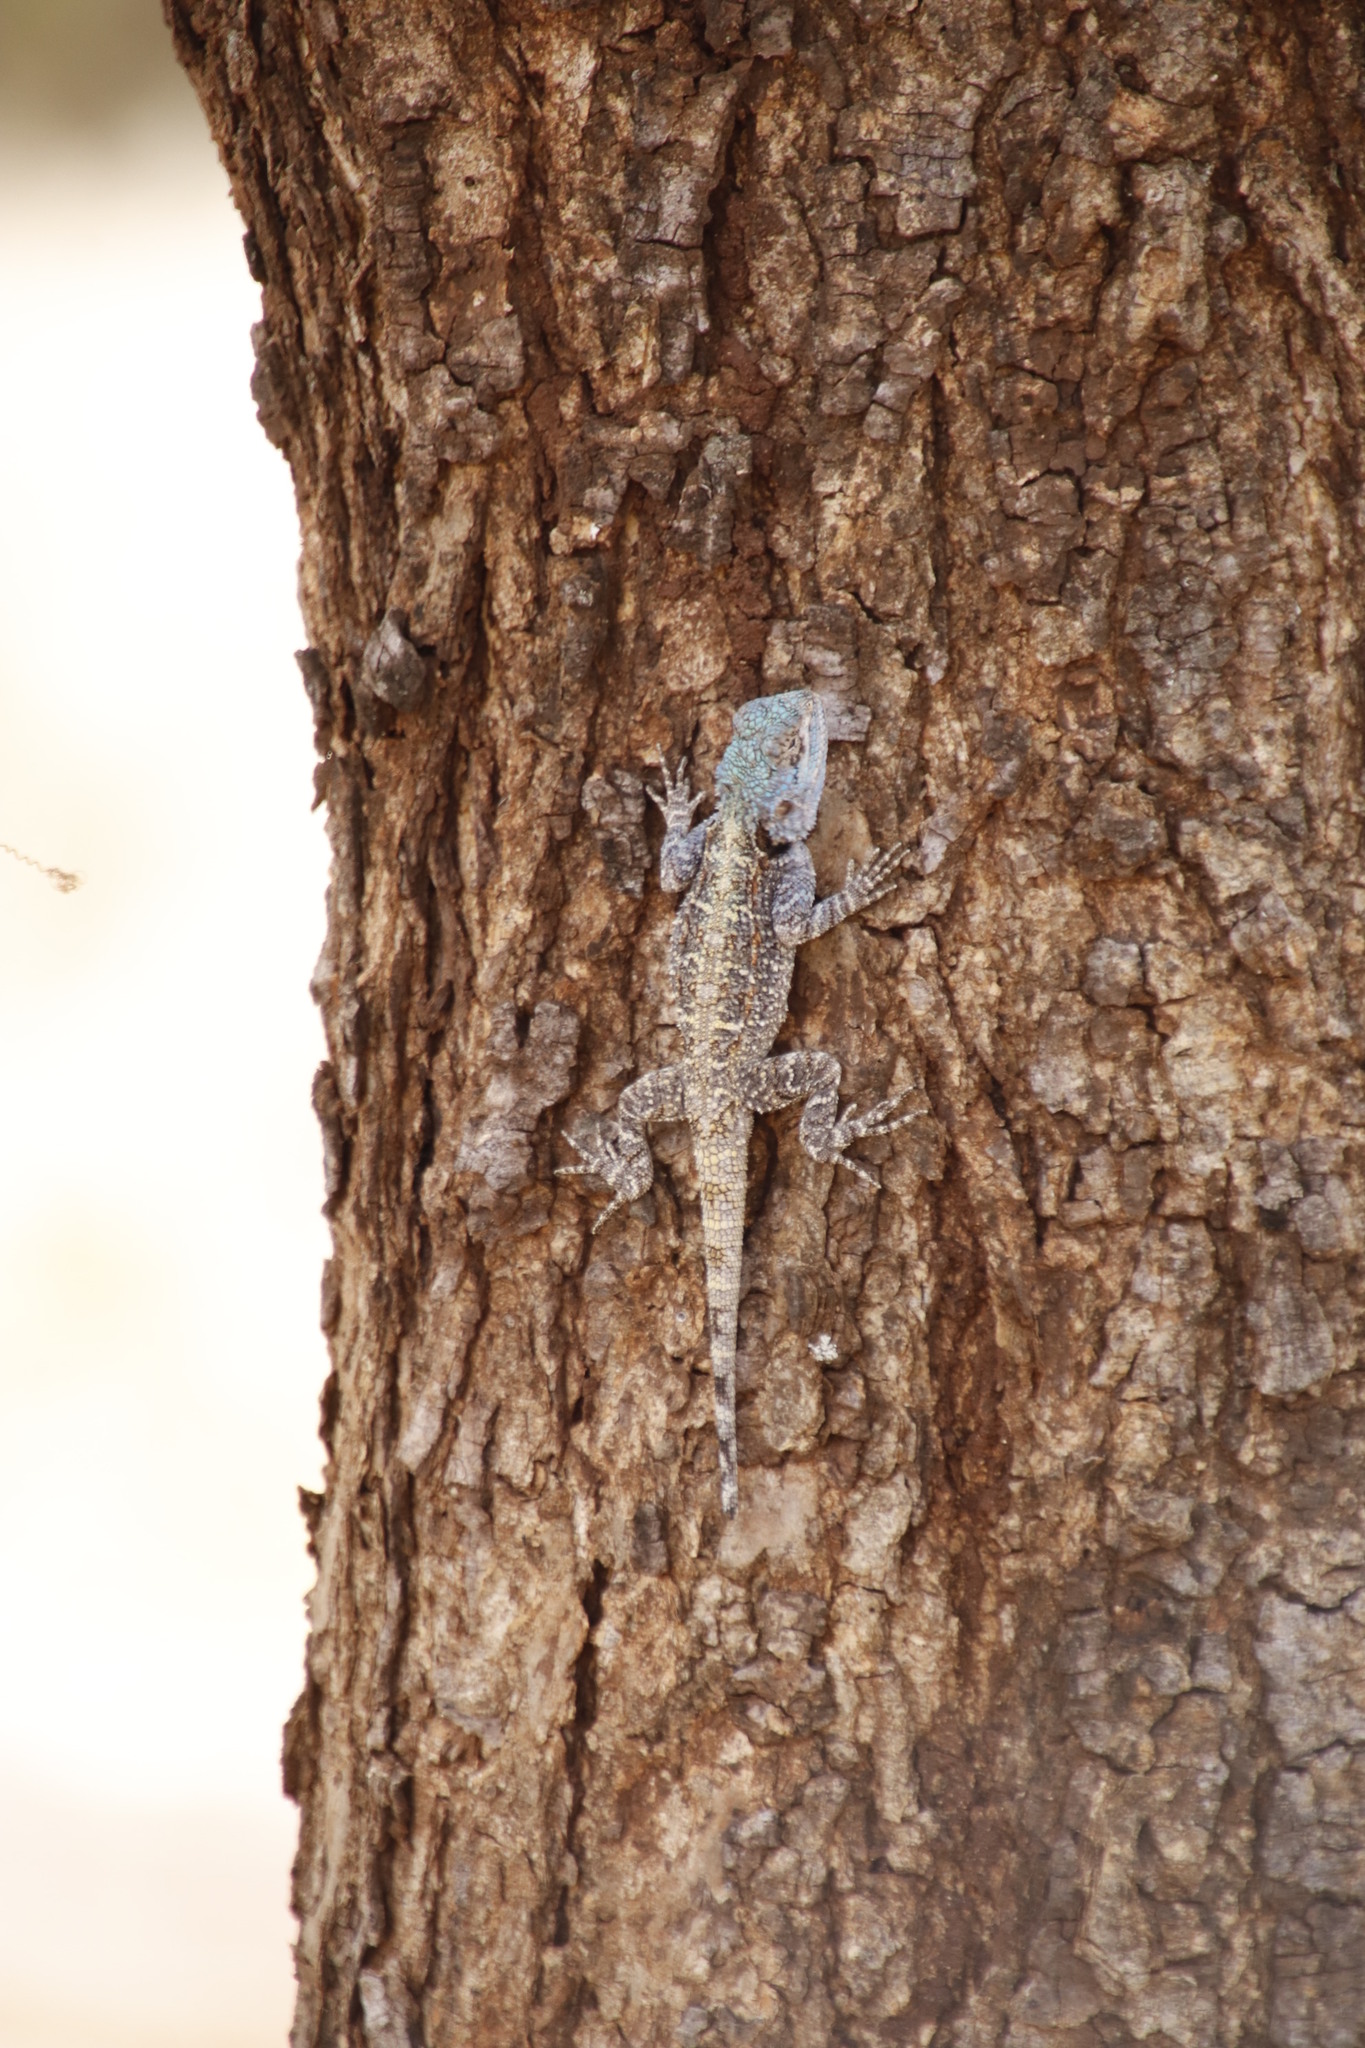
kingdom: Animalia
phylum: Chordata
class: Squamata
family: Agamidae
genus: Acanthocercus
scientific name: Acanthocercus atricollis
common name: Southern tree agama
